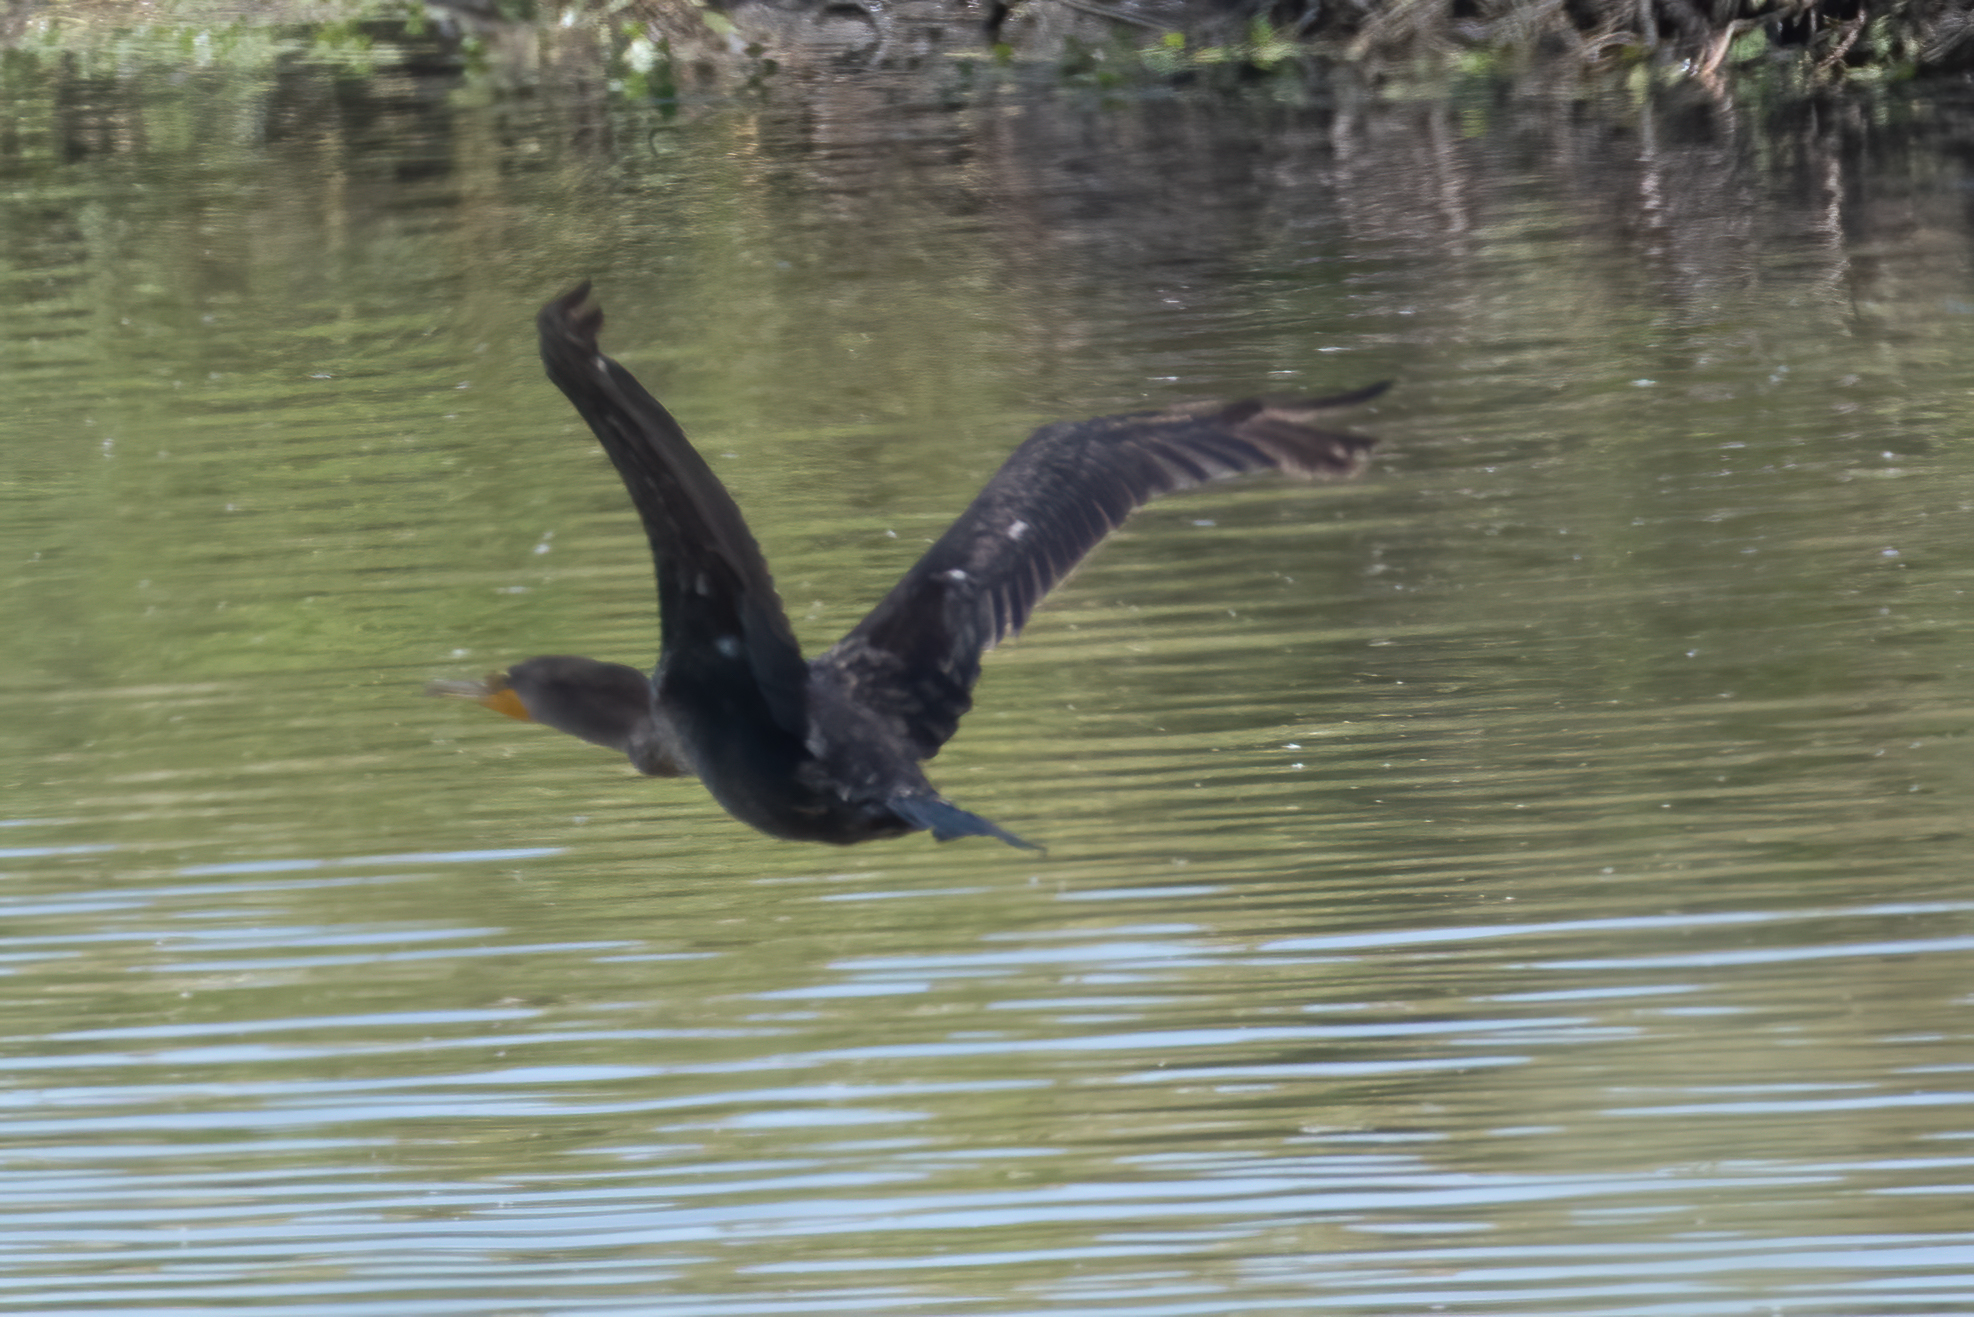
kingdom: Animalia
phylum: Chordata
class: Aves
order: Suliformes
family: Phalacrocoracidae
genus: Phalacrocorax
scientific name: Phalacrocorax auritus
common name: Double-crested cormorant
